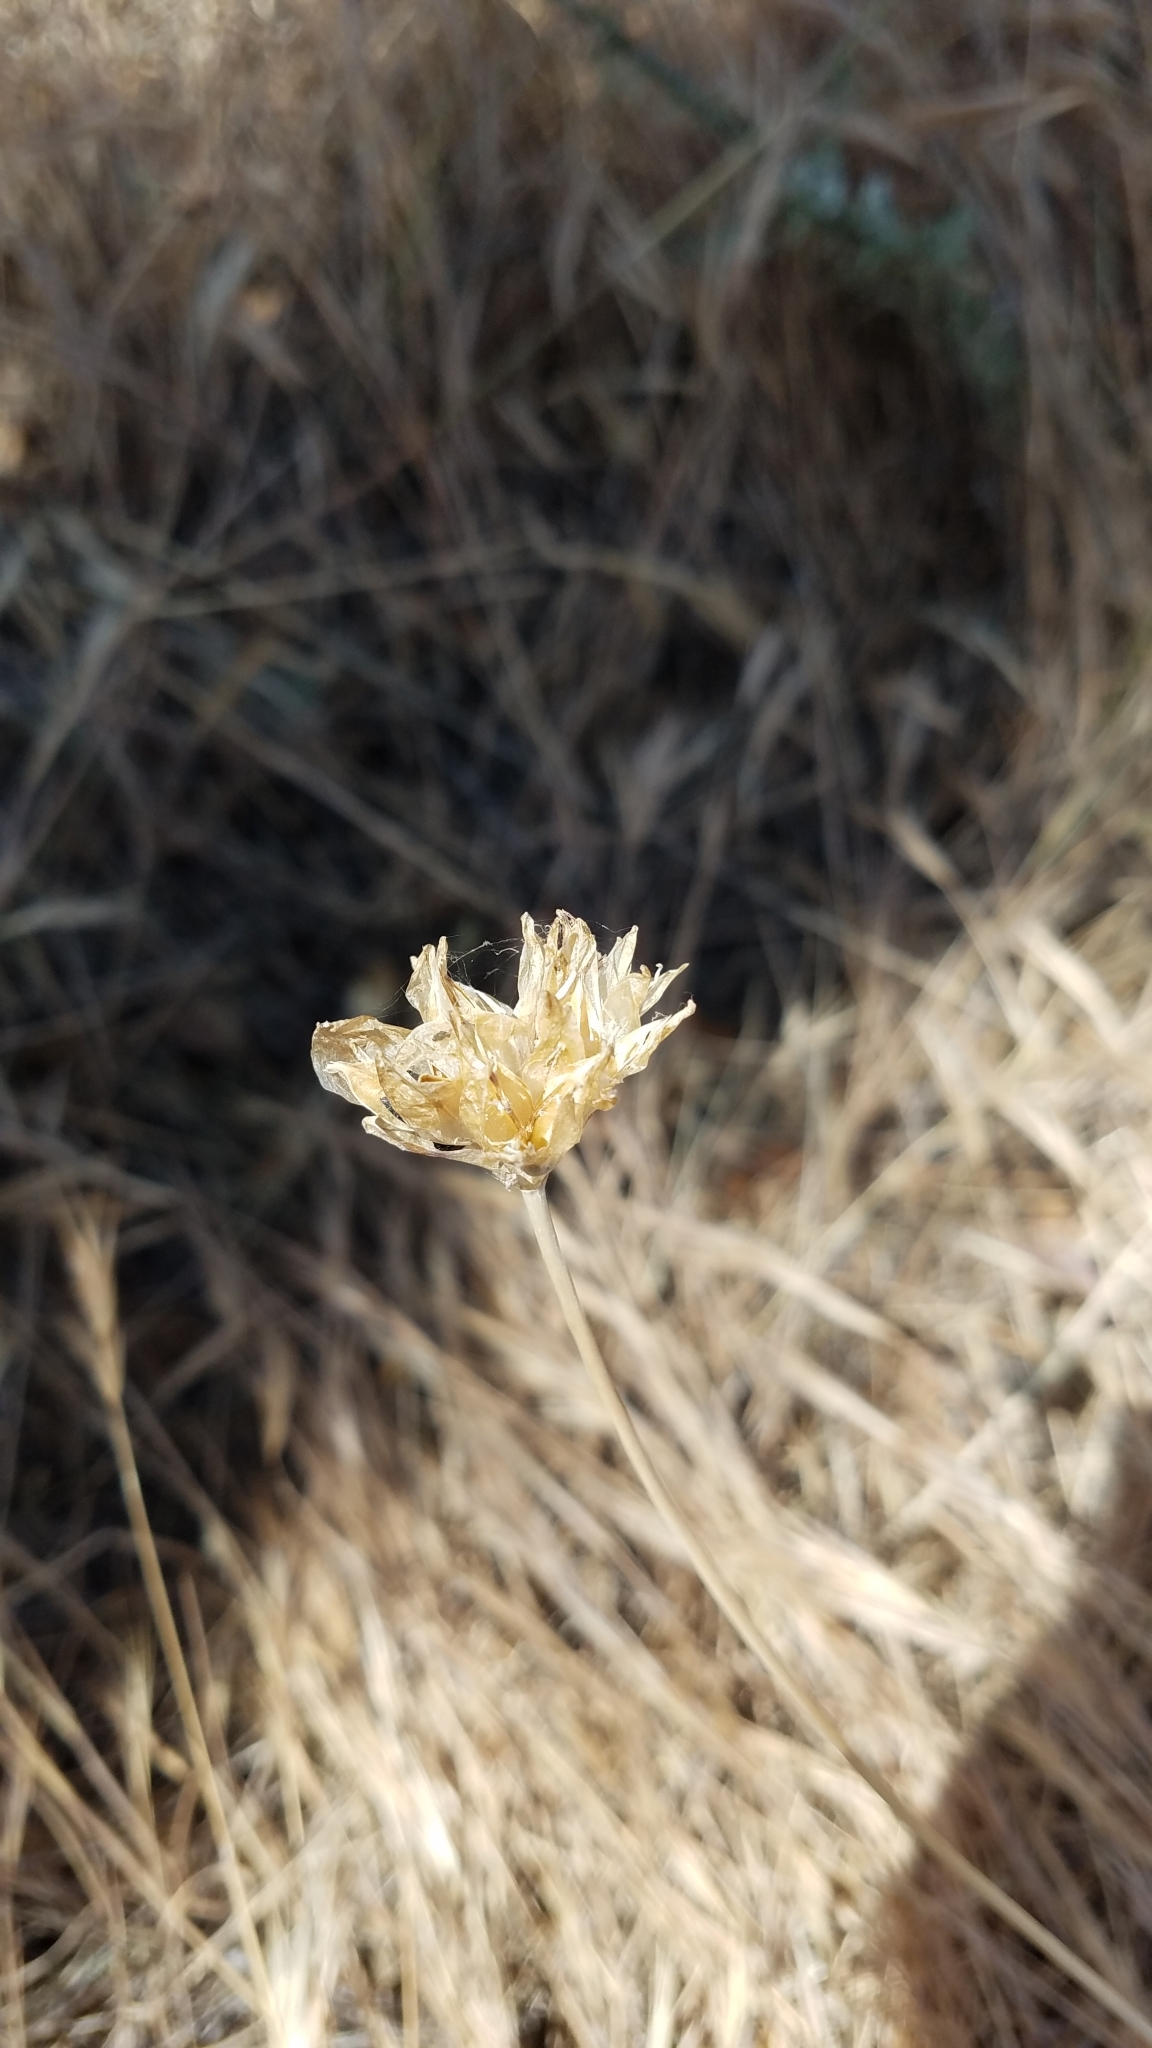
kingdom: Plantae
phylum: Tracheophyta
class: Liliopsida
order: Asparagales
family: Asparagaceae
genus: Dipterostemon
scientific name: Dipterostemon capitatus
